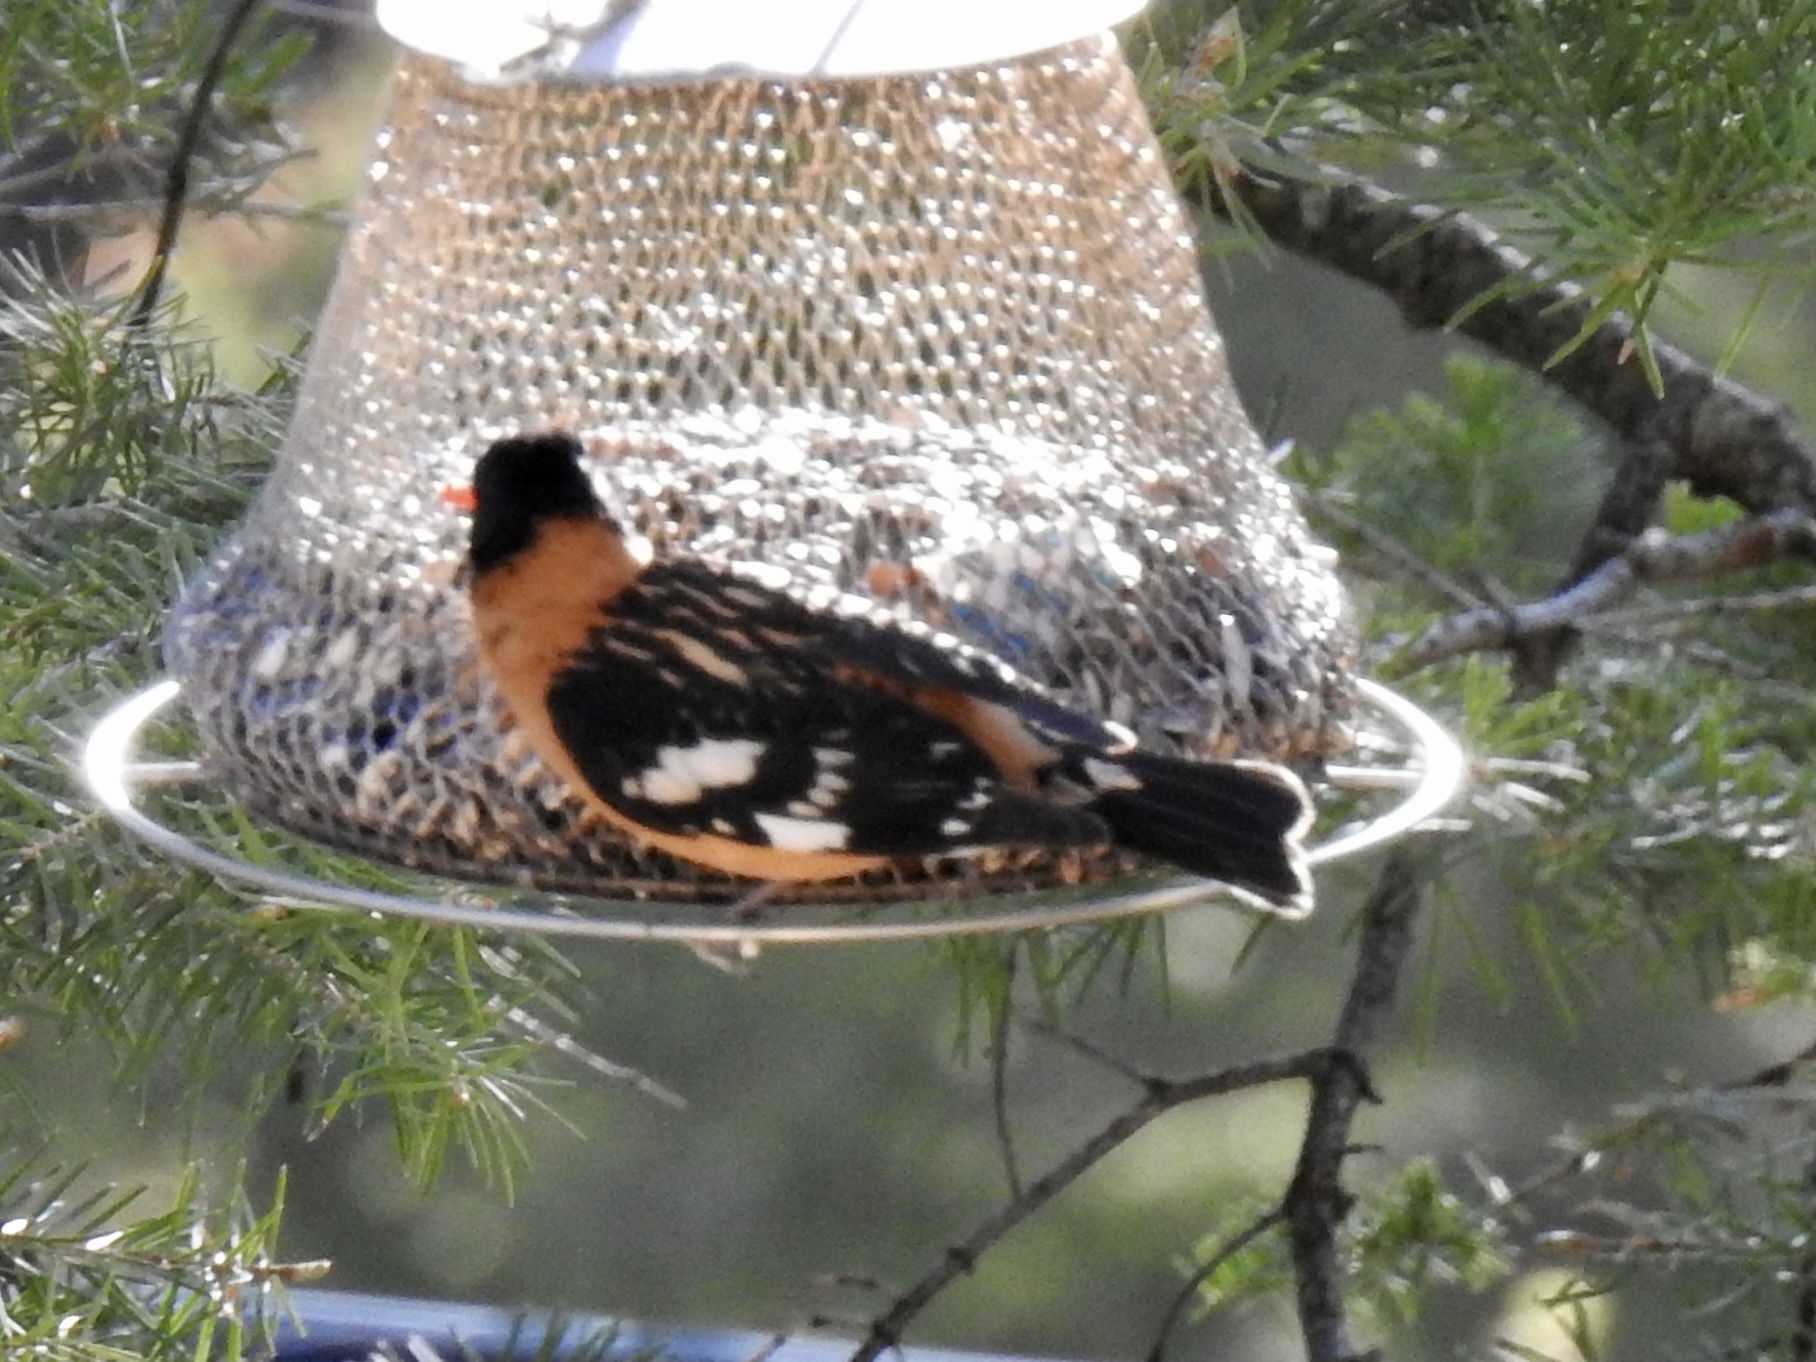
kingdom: Animalia
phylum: Chordata
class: Aves
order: Passeriformes
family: Cardinalidae
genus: Pheucticus
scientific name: Pheucticus melanocephalus
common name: Black-headed grosbeak
